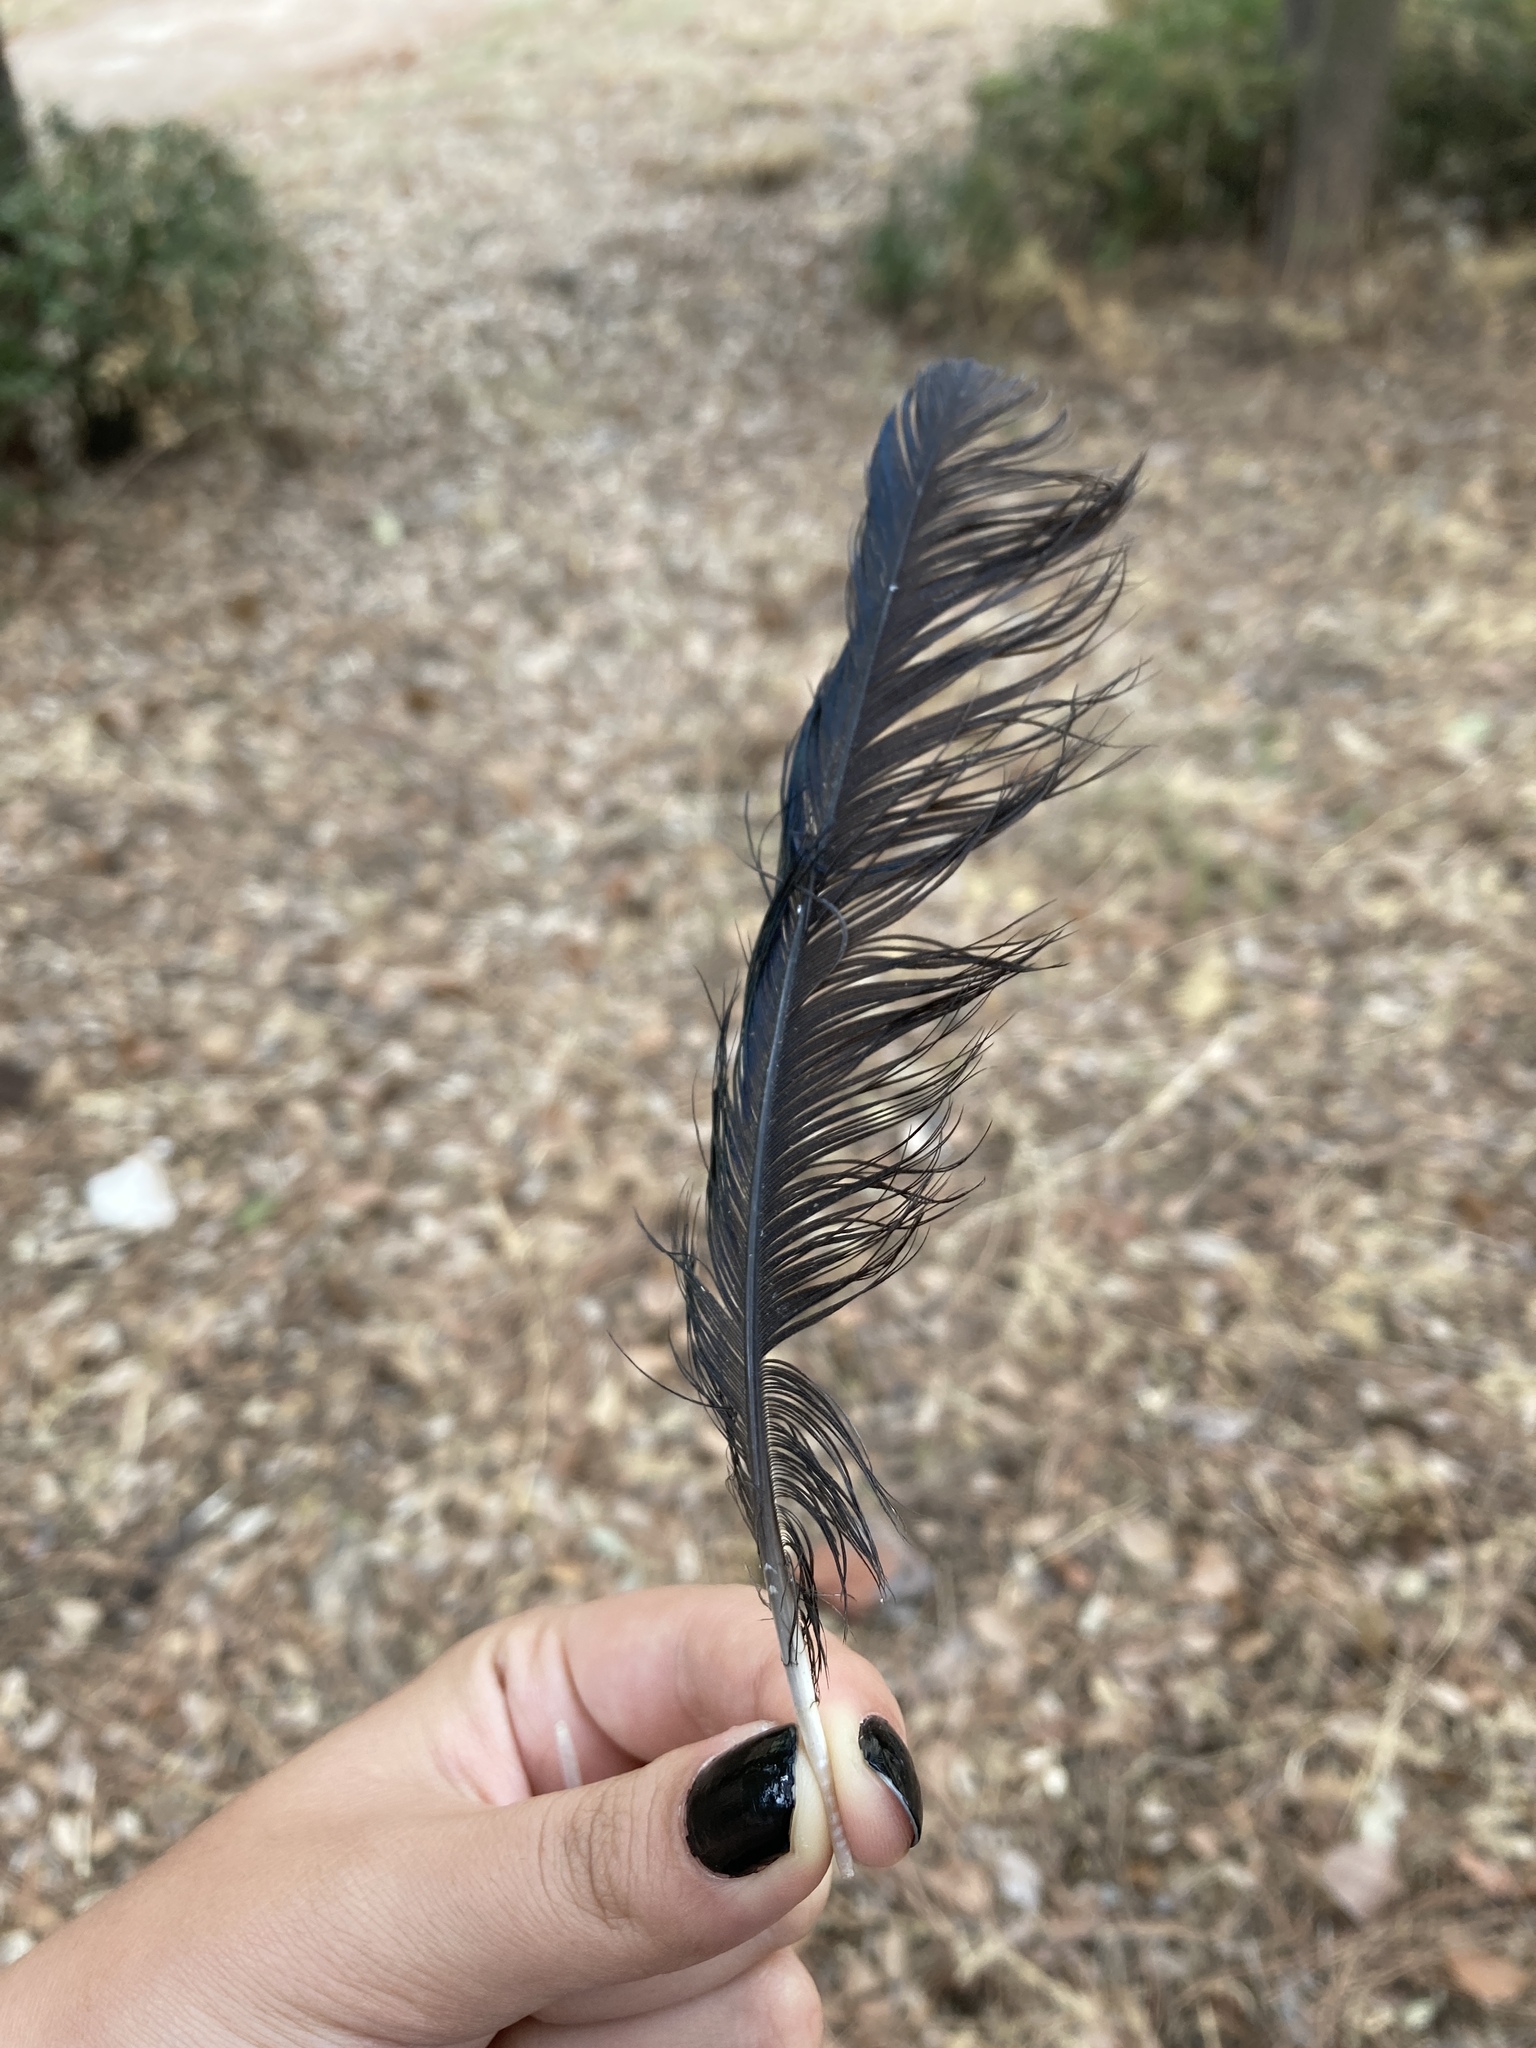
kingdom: Animalia
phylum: Chordata
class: Aves
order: Passeriformes
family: Corvidae
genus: Pica
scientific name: Pica pica
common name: Eurasian magpie
